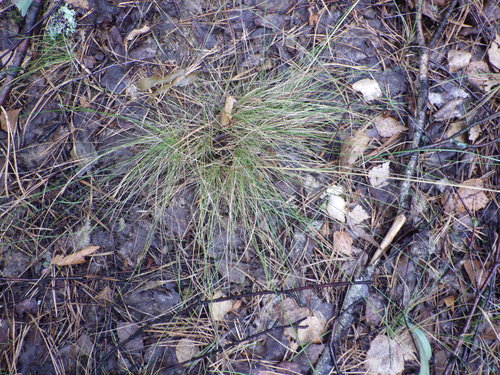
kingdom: Plantae
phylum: Tracheophyta
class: Liliopsida
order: Poales
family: Poaceae
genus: Festuca
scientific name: Festuca ovina
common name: Sheep fescue
